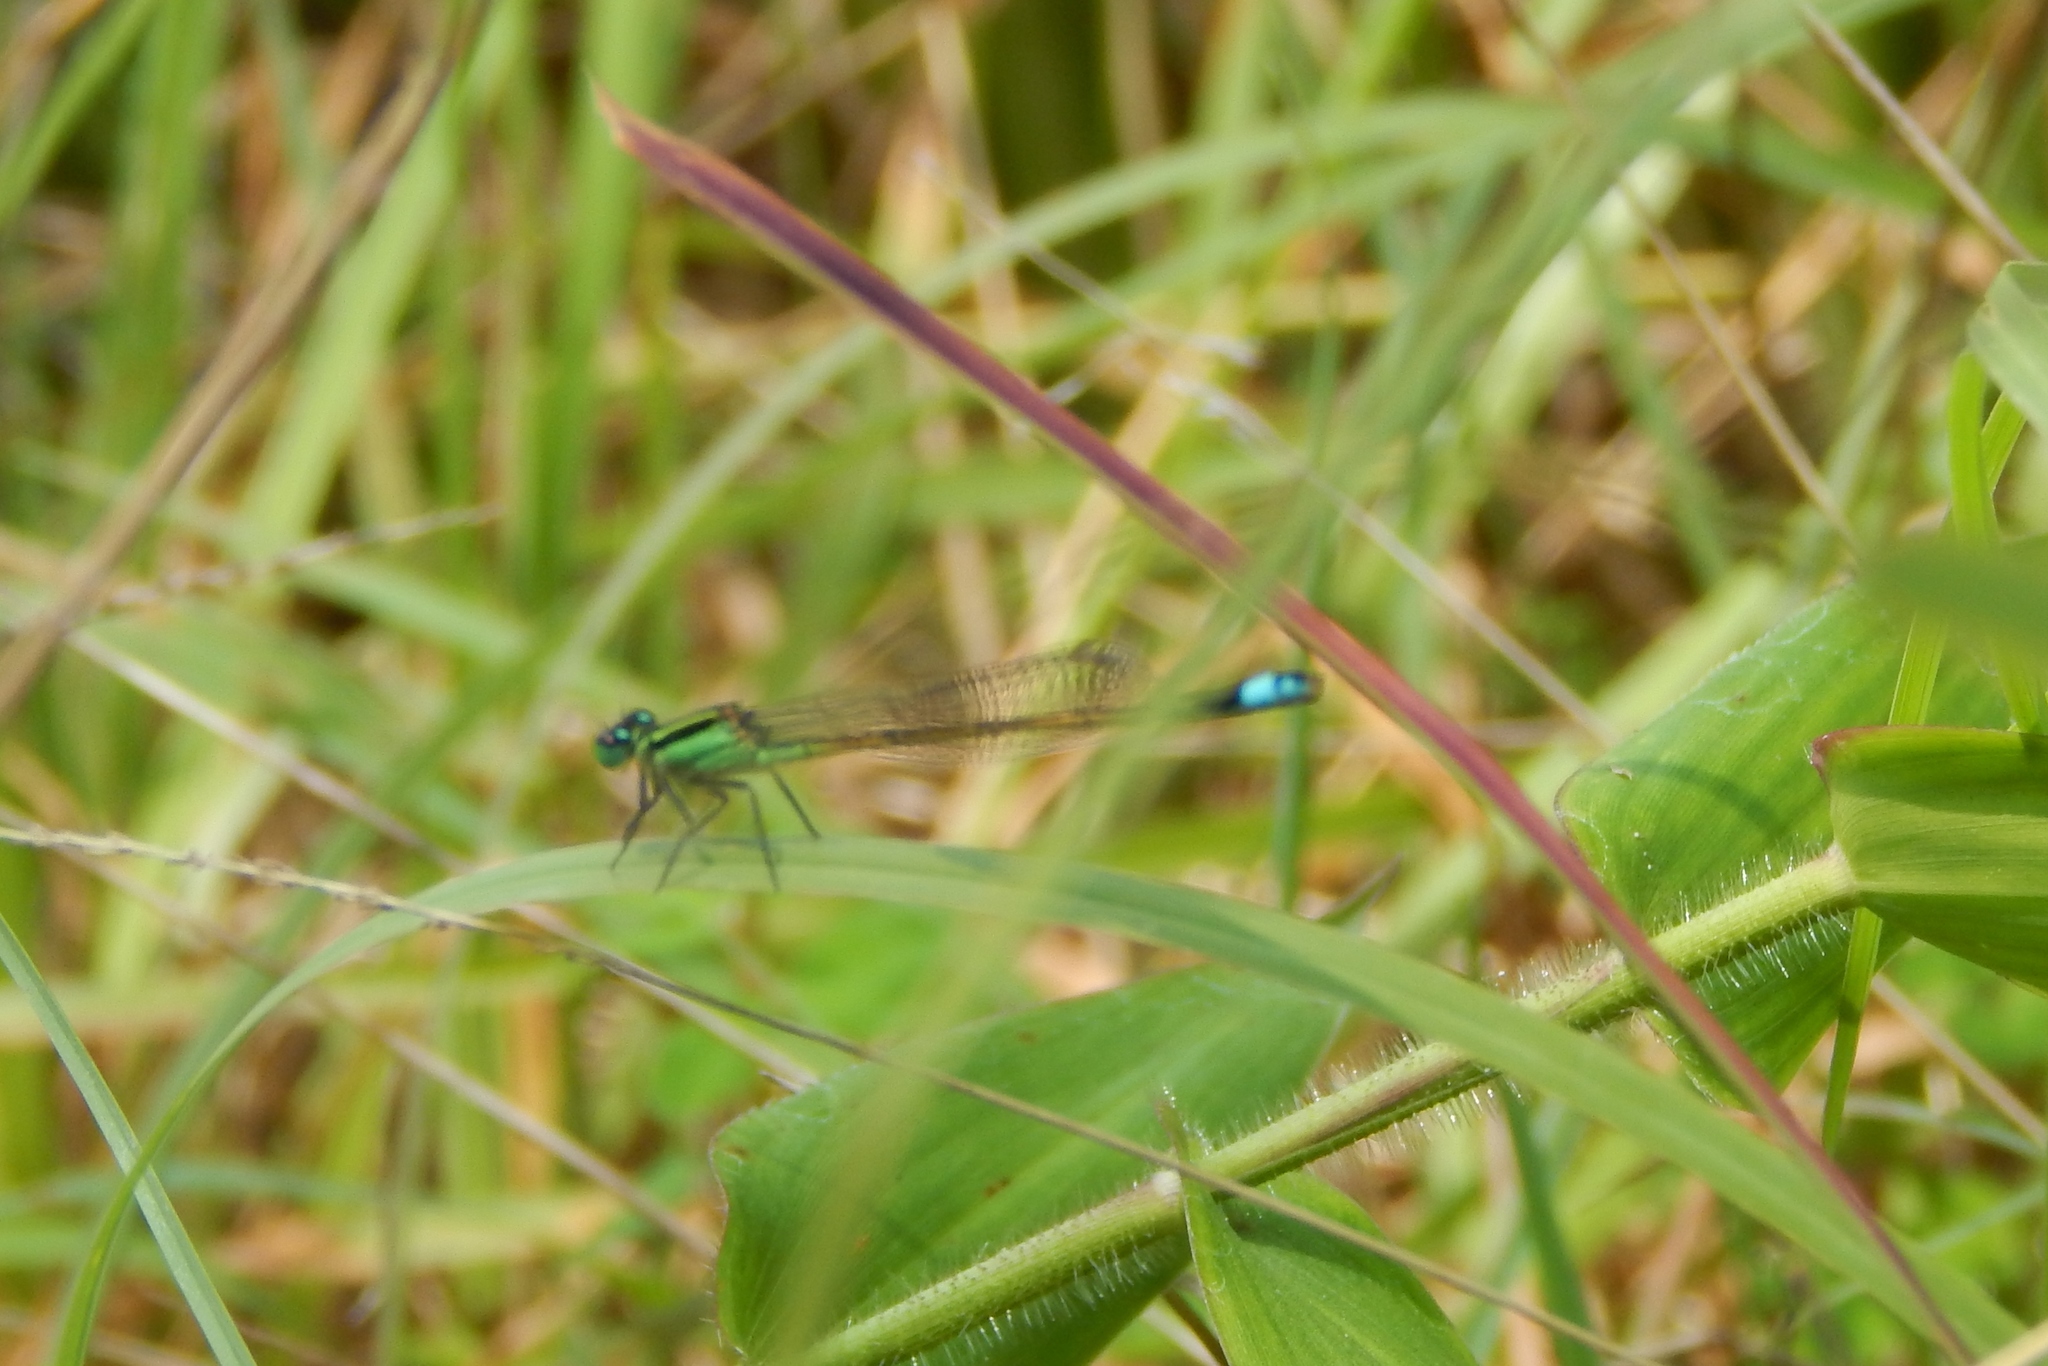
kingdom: Animalia
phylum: Arthropoda
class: Insecta
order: Odonata
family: Coenagrionidae
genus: Ischnura
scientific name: Ischnura ramburii
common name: Rambur's forktail
